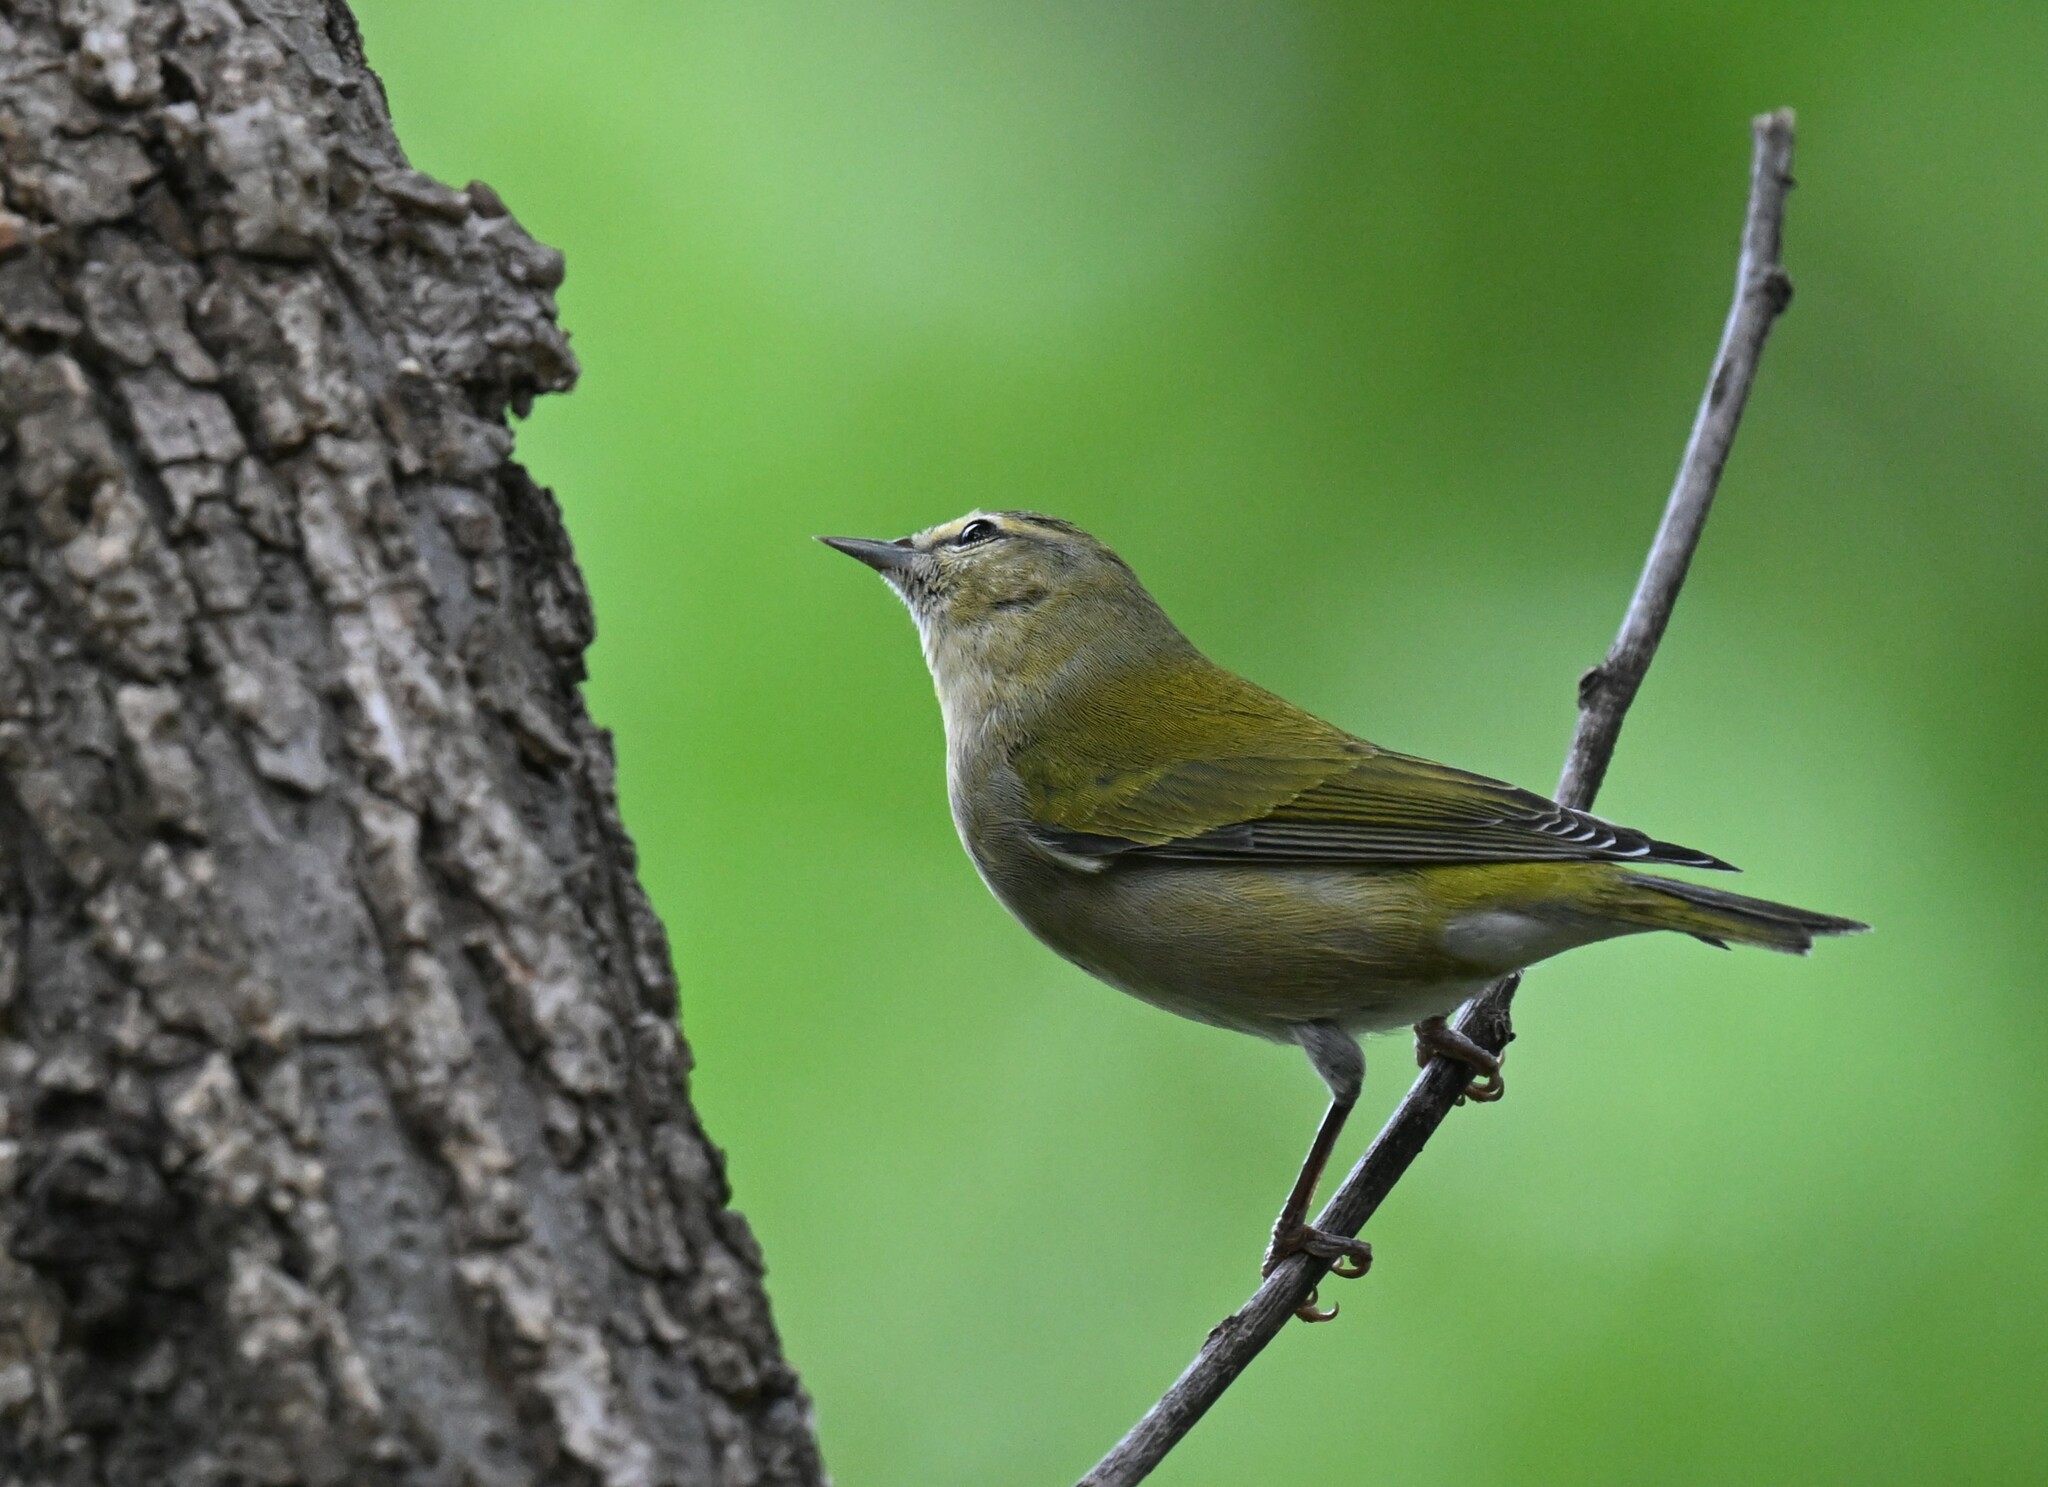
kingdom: Animalia
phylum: Chordata
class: Aves
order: Passeriformes
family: Parulidae
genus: Leiothlypis
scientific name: Leiothlypis peregrina
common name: Tennessee warbler
